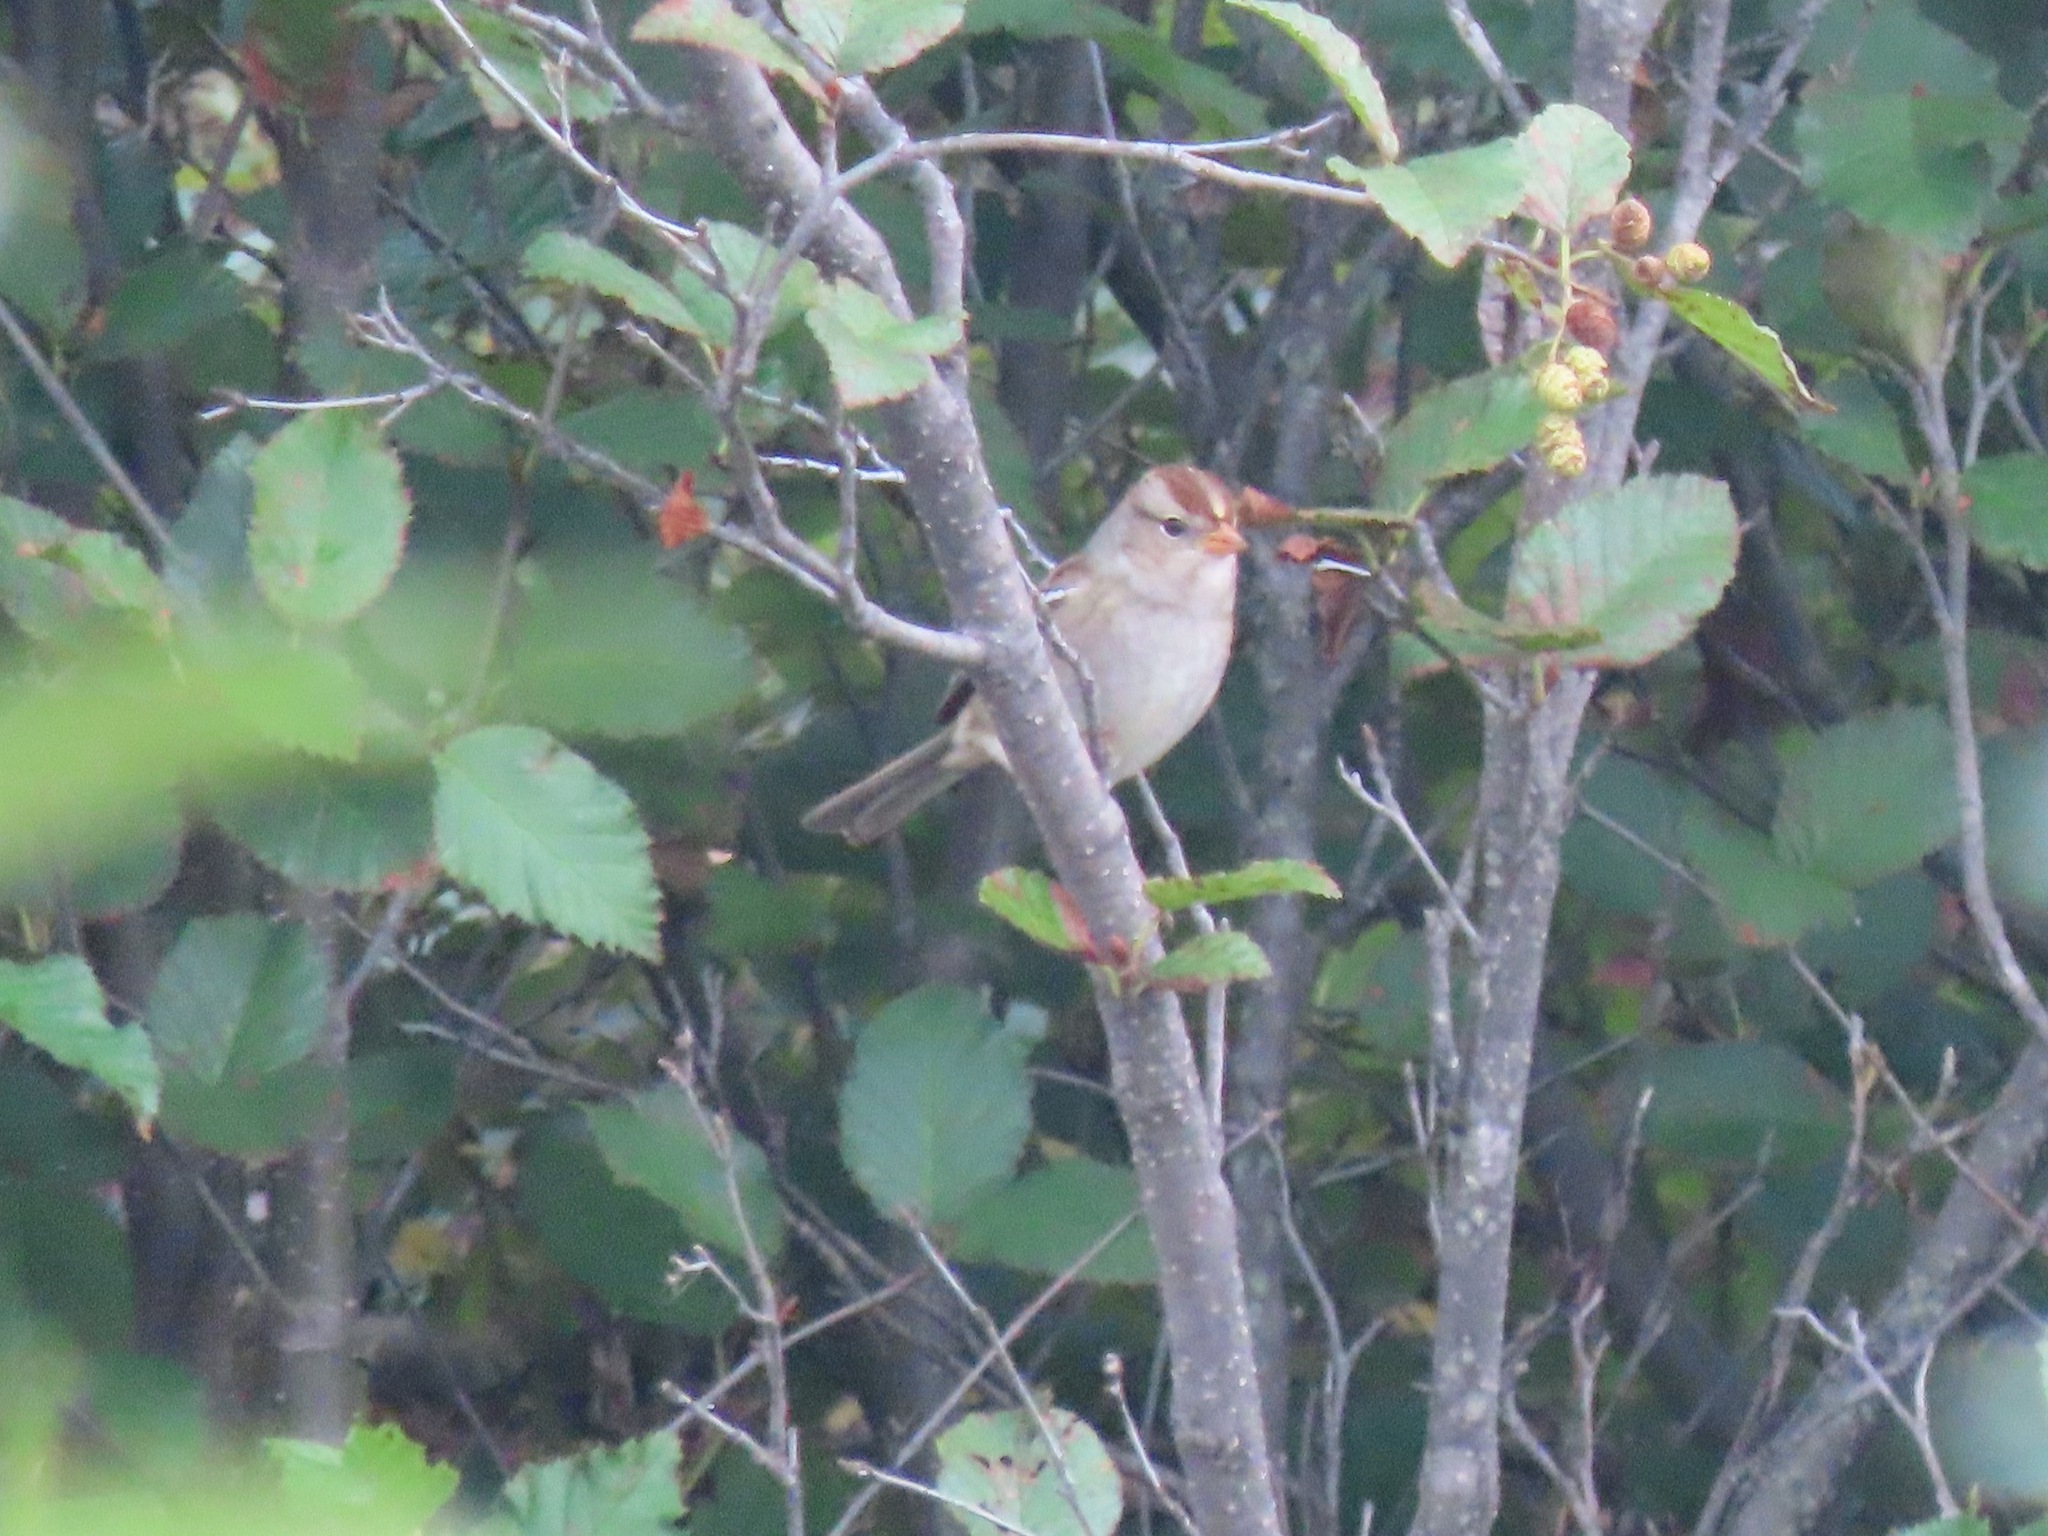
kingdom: Animalia
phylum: Chordata
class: Aves
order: Passeriformes
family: Passerellidae
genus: Zonotrichia
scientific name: Zonotrichia leucophrys
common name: White-crowned sparrow
